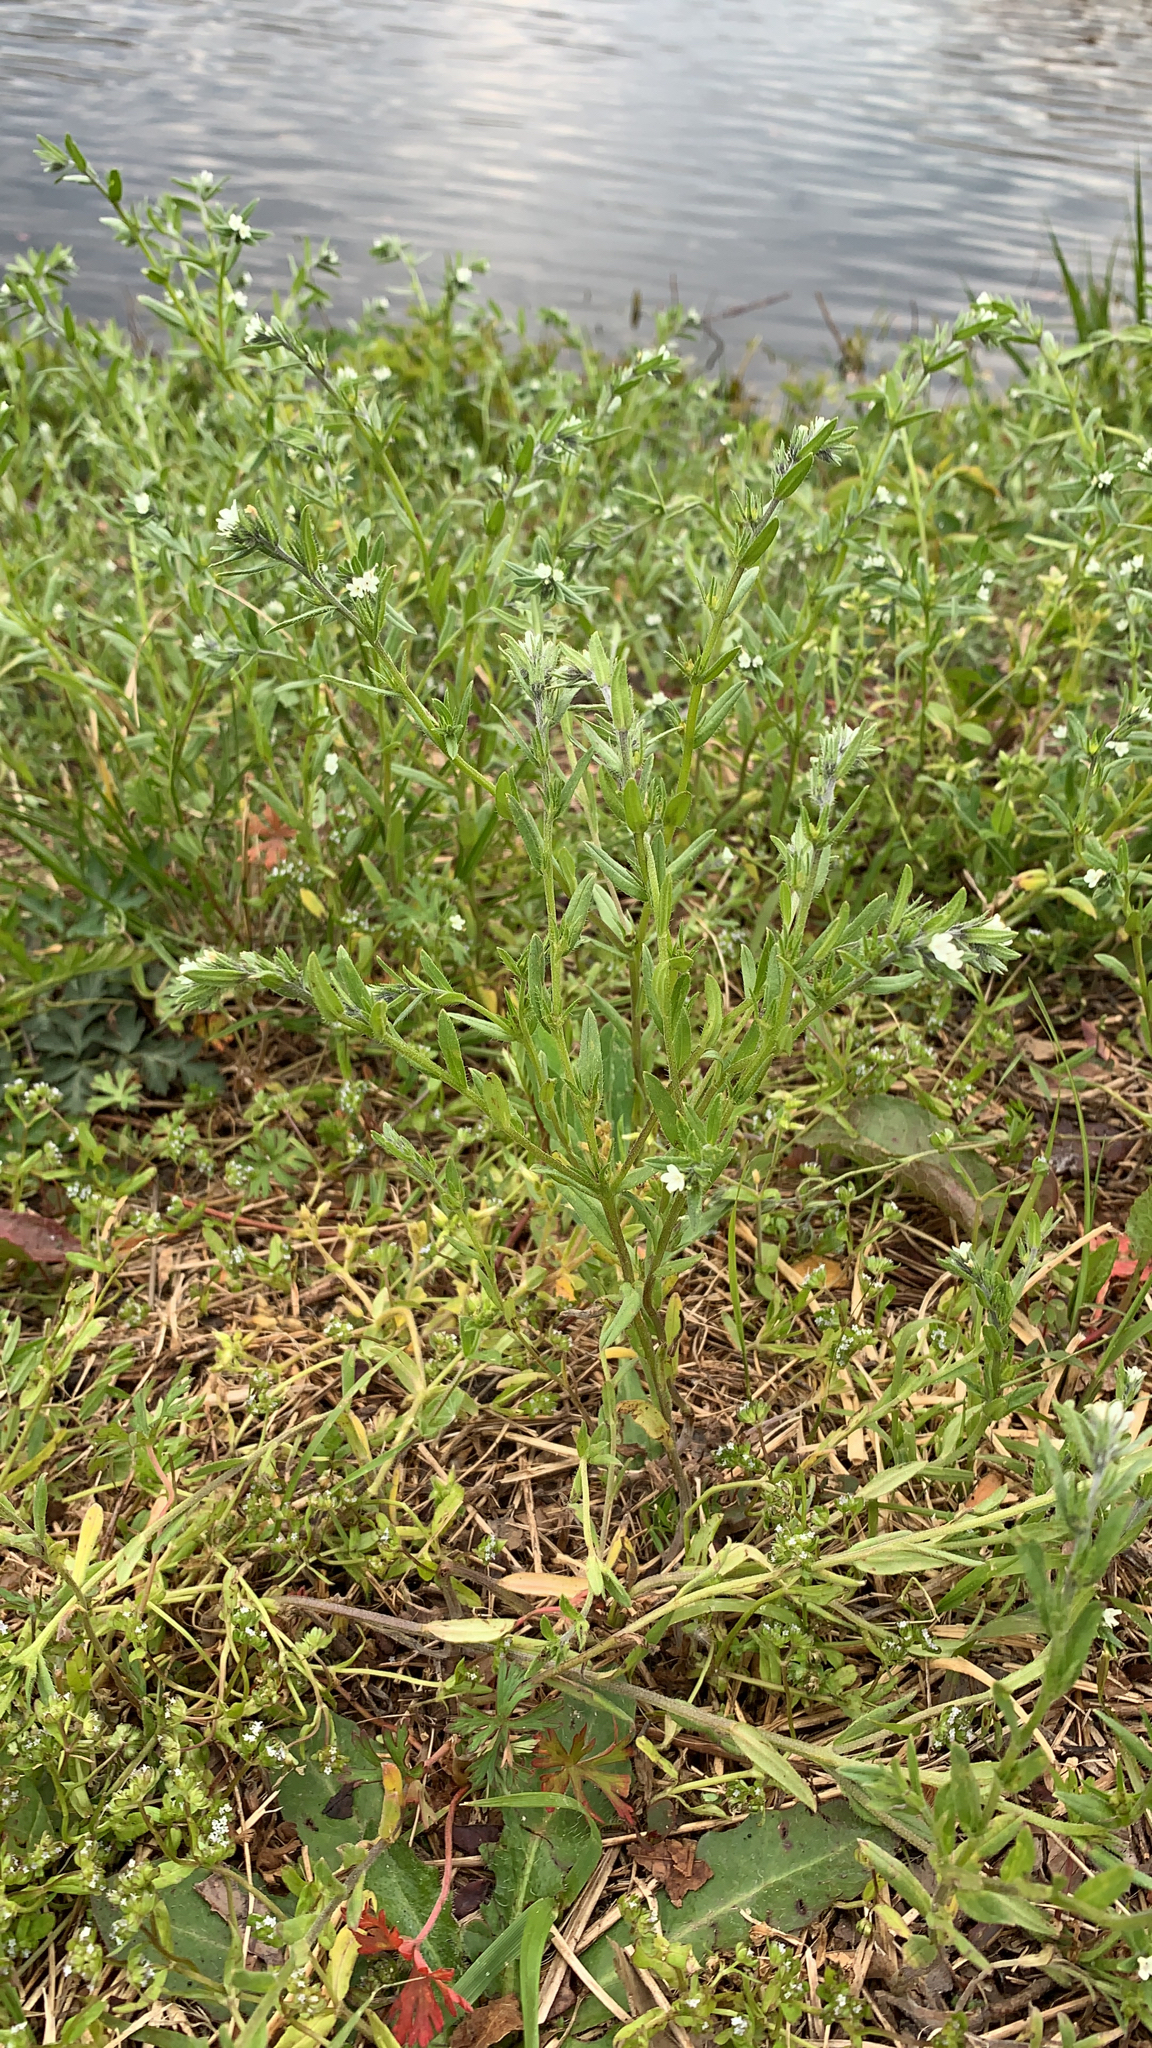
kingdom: Plantae
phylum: Tracheophyta
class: Magnoliopsida
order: Boraginales
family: Boraginaceae
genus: Buglossoides
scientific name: Buglossoides arvensis
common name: Corn gromwell
